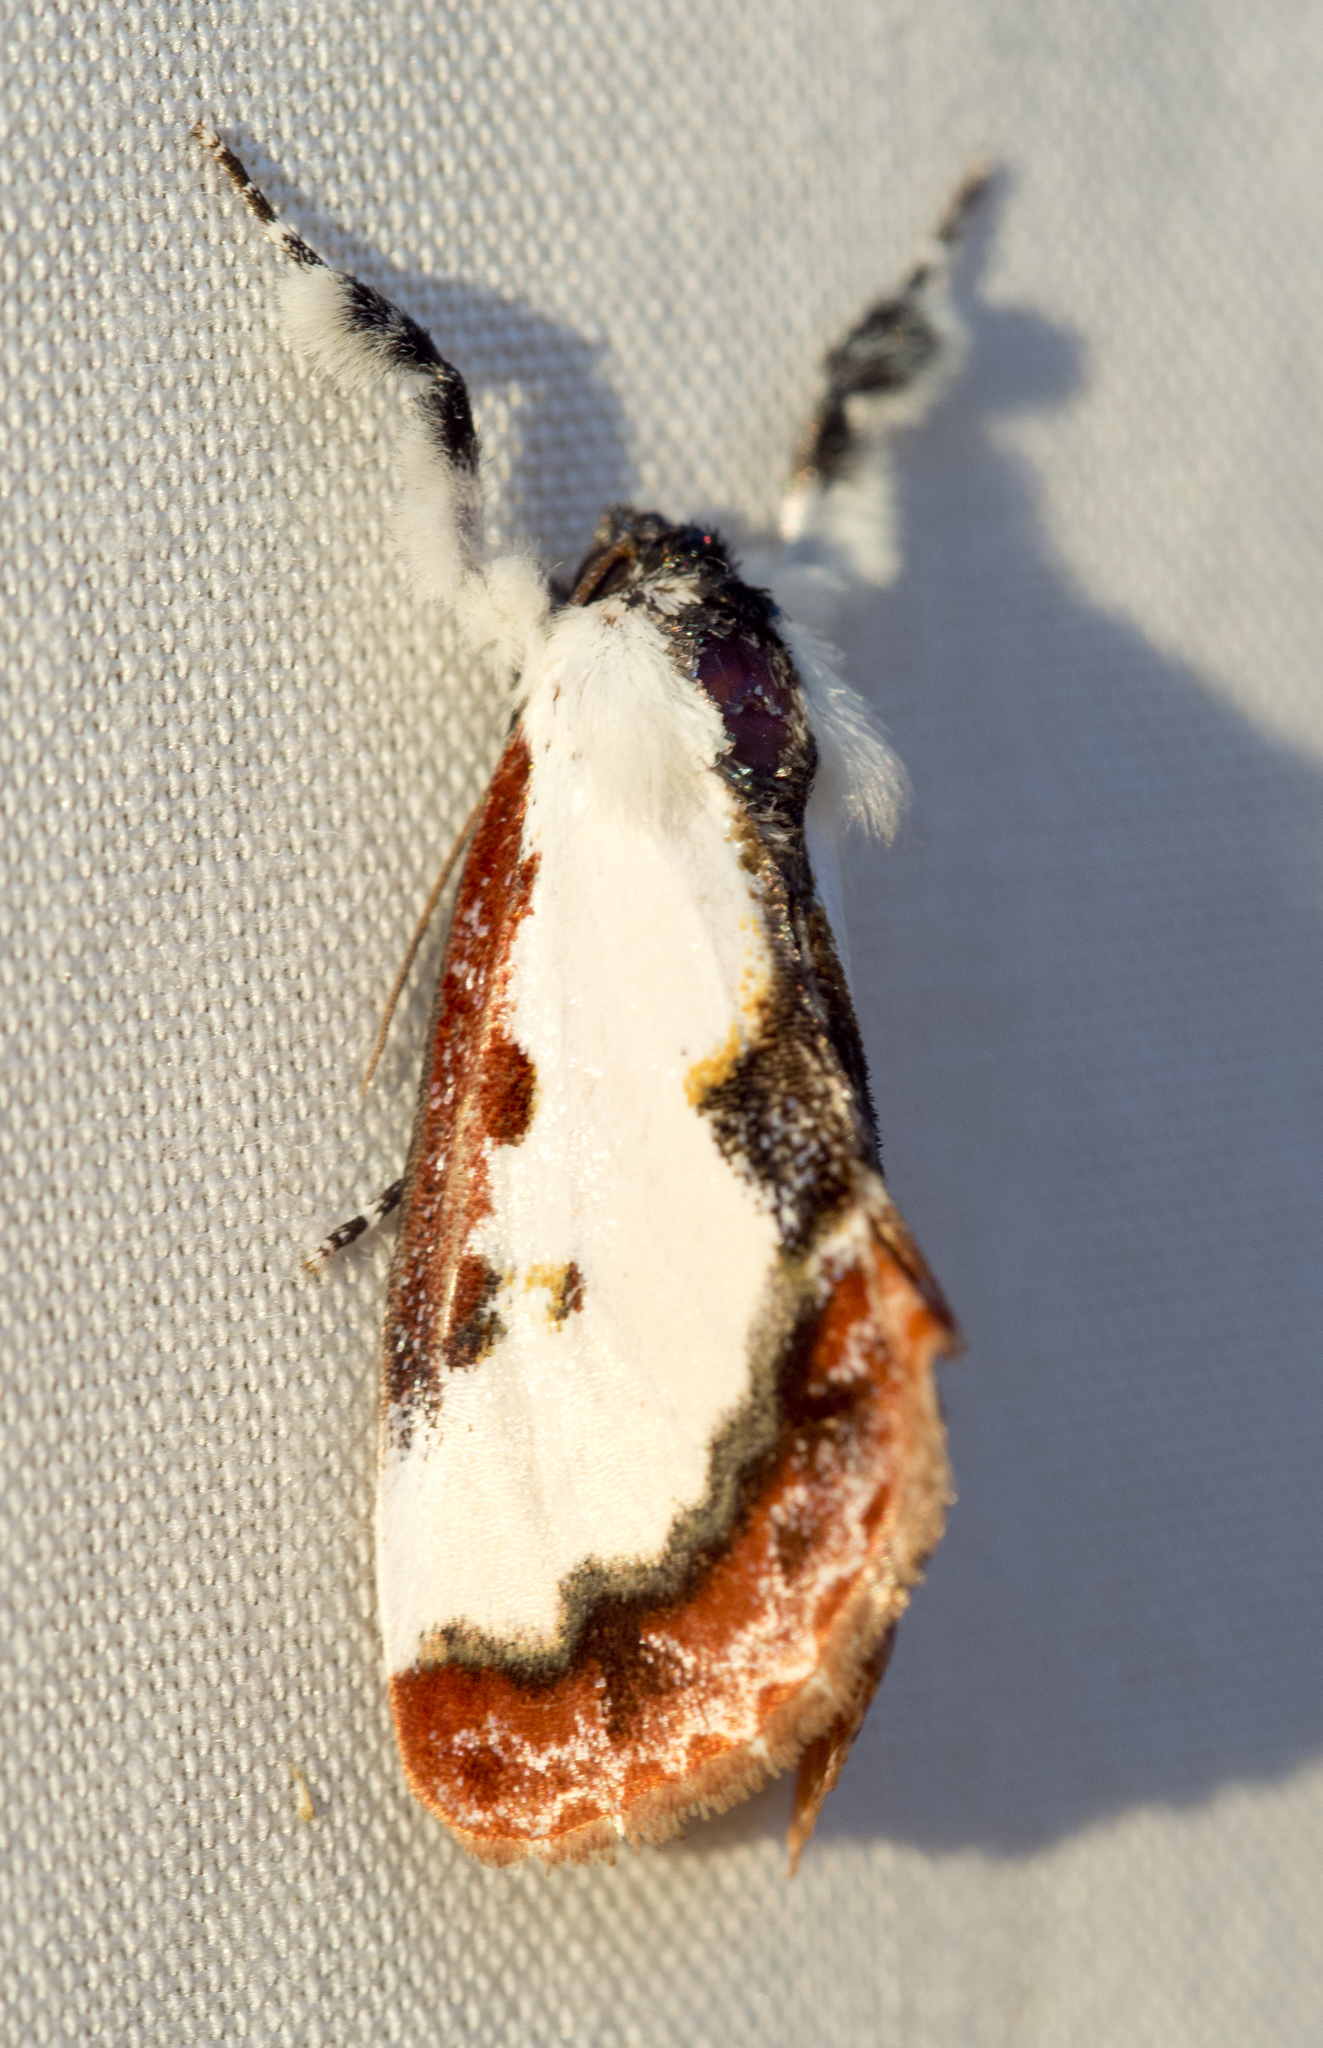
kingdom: Animalia
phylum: Arthropoda
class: Insecta
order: Lepidoptera
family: Noctuidae
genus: Eudryas
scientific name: Eudryas brevipennis
